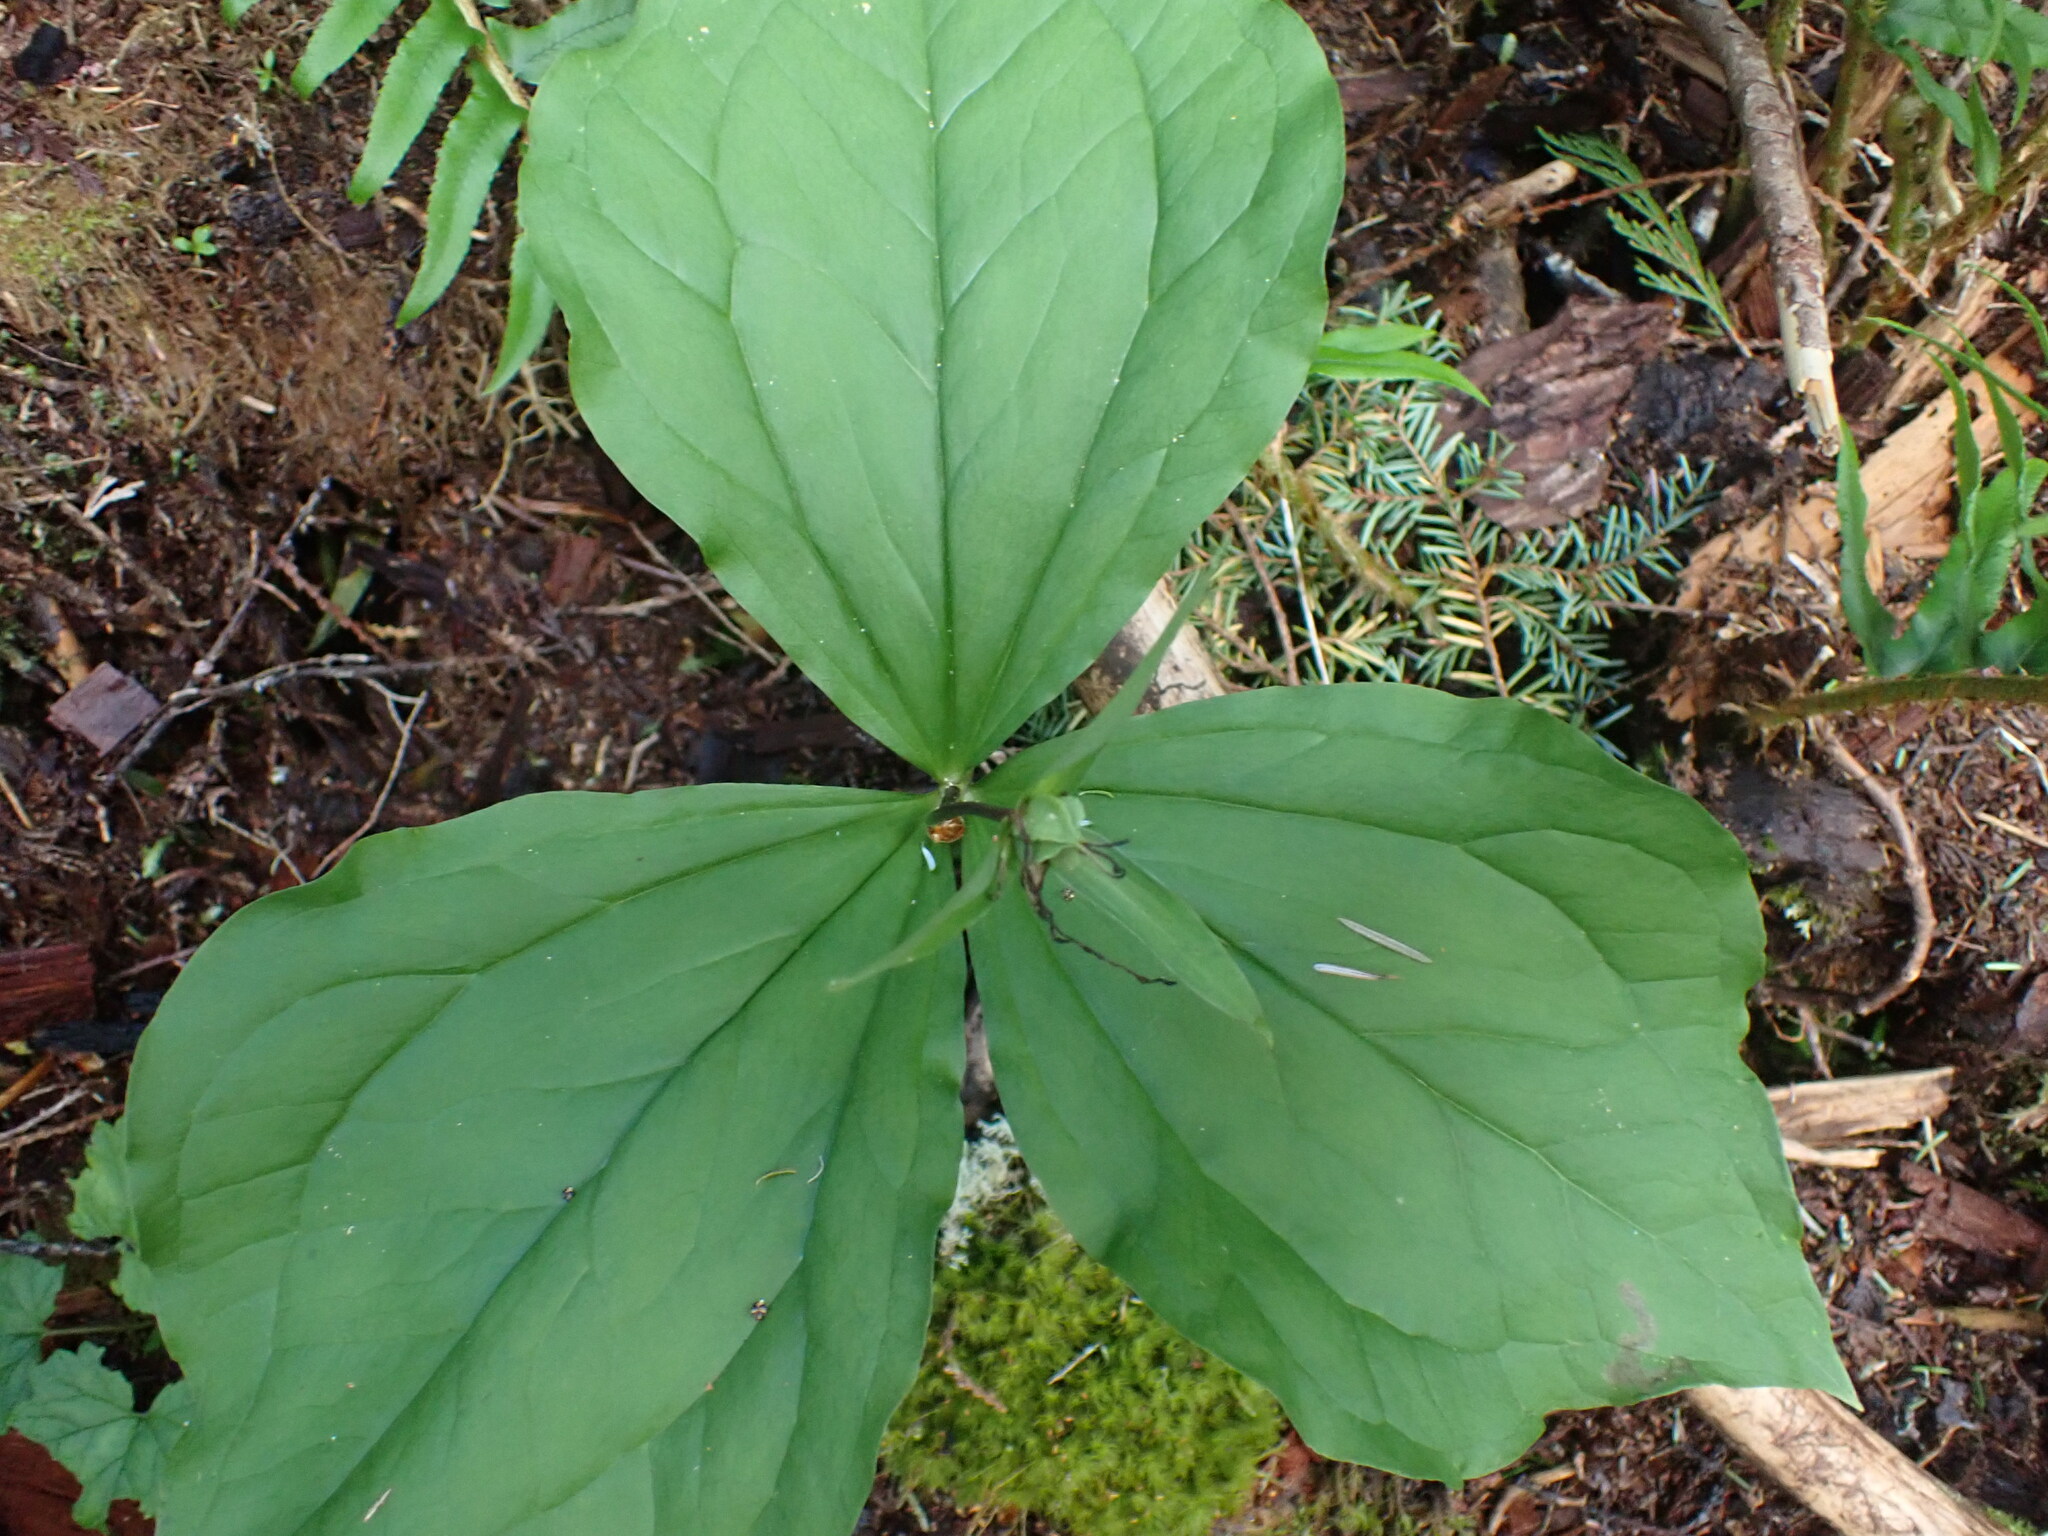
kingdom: Plantae
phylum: Tracheophyta
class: Liliopsida
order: Liliales
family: Melanthiaceae
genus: Trillium
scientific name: Trillium ovatum
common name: Pacific trillium
